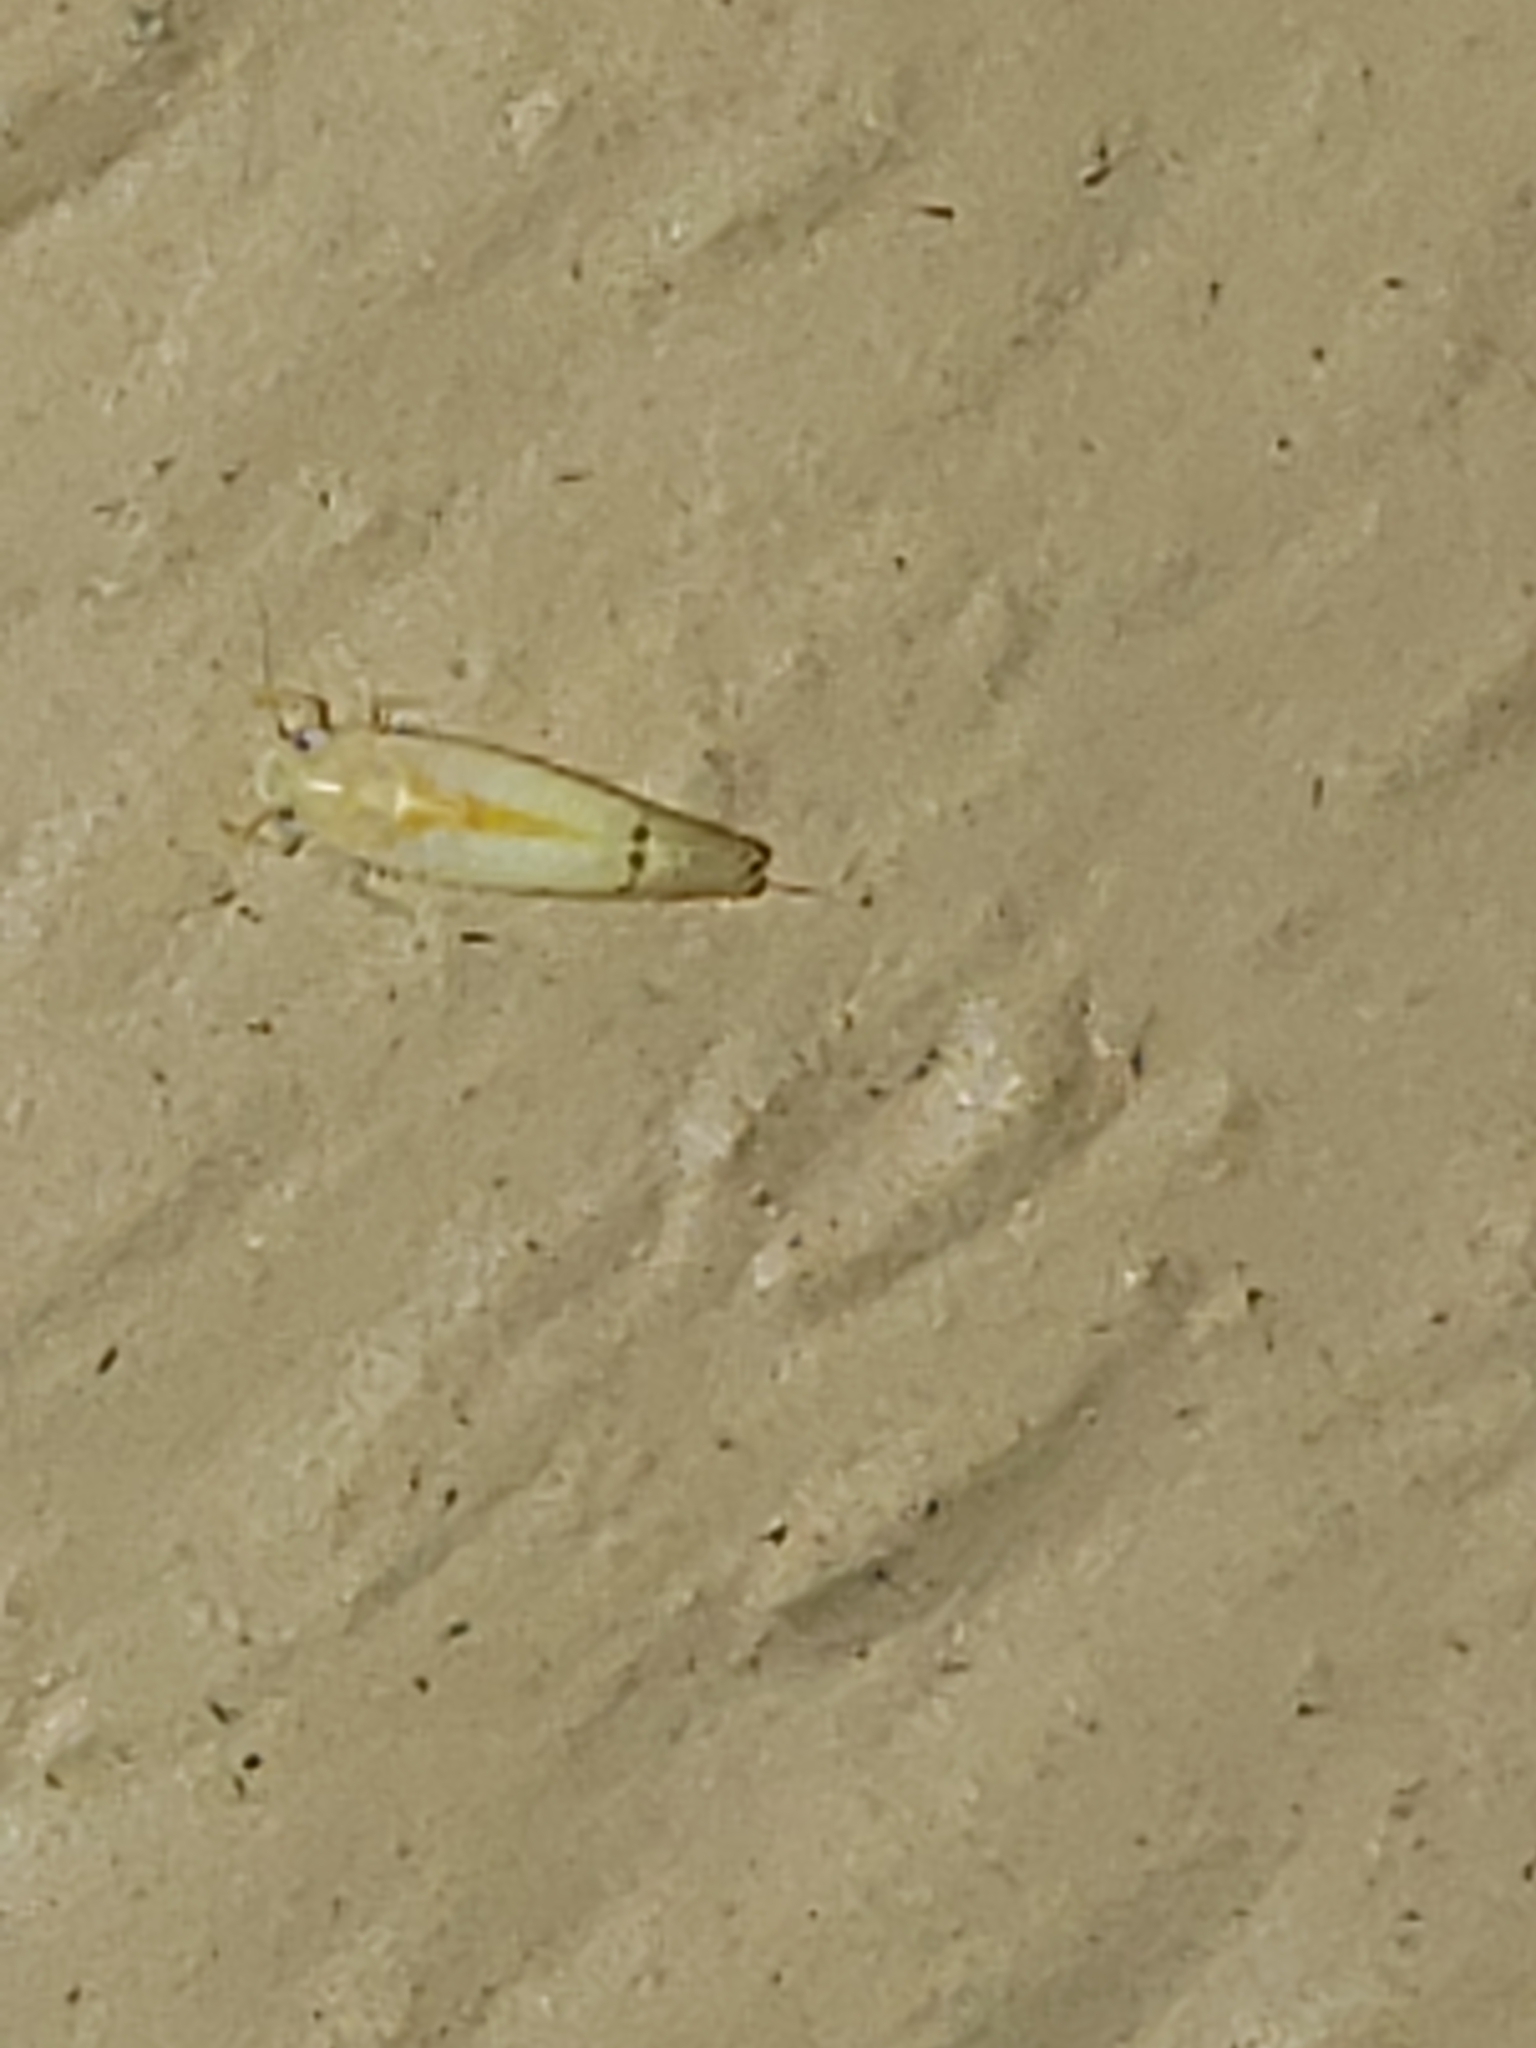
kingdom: Animalia
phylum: Arthropoda
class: Insecta
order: Hemiptera
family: Cicadellidae
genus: Ossiannilssonola
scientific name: Ossiannilssonola australis
